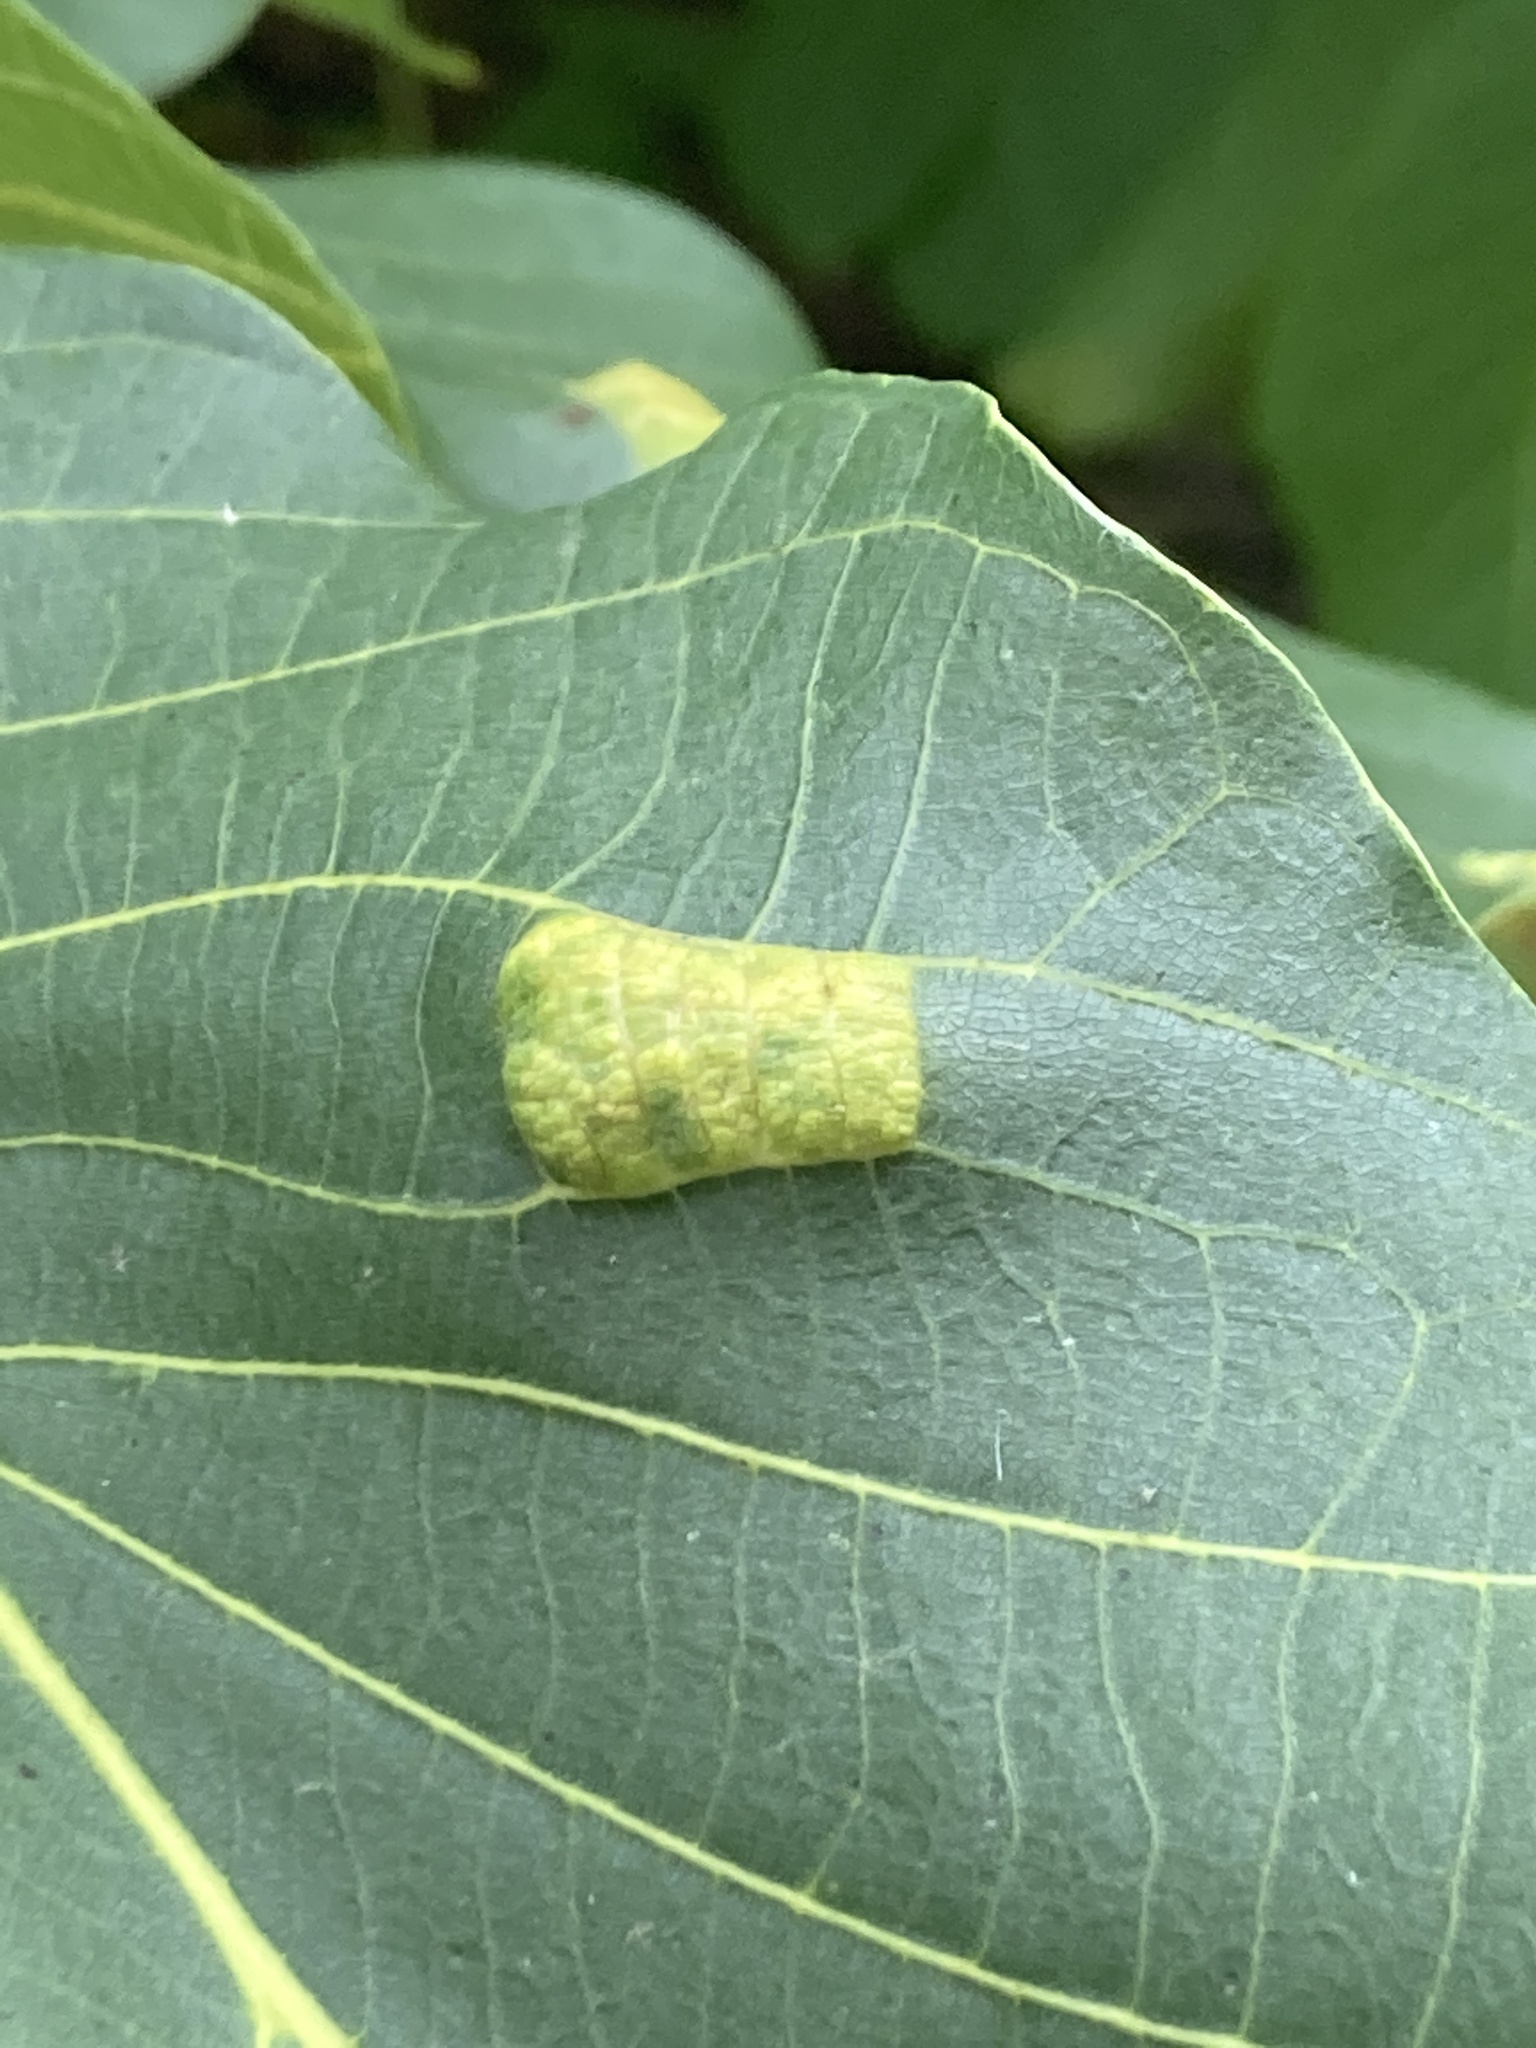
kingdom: Animalia
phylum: Arthropoda
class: Arachnida
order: Trombidiformes
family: Eriophyidae
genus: Aceria
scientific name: Aceria erinea
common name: Persian walnut erineum mite
